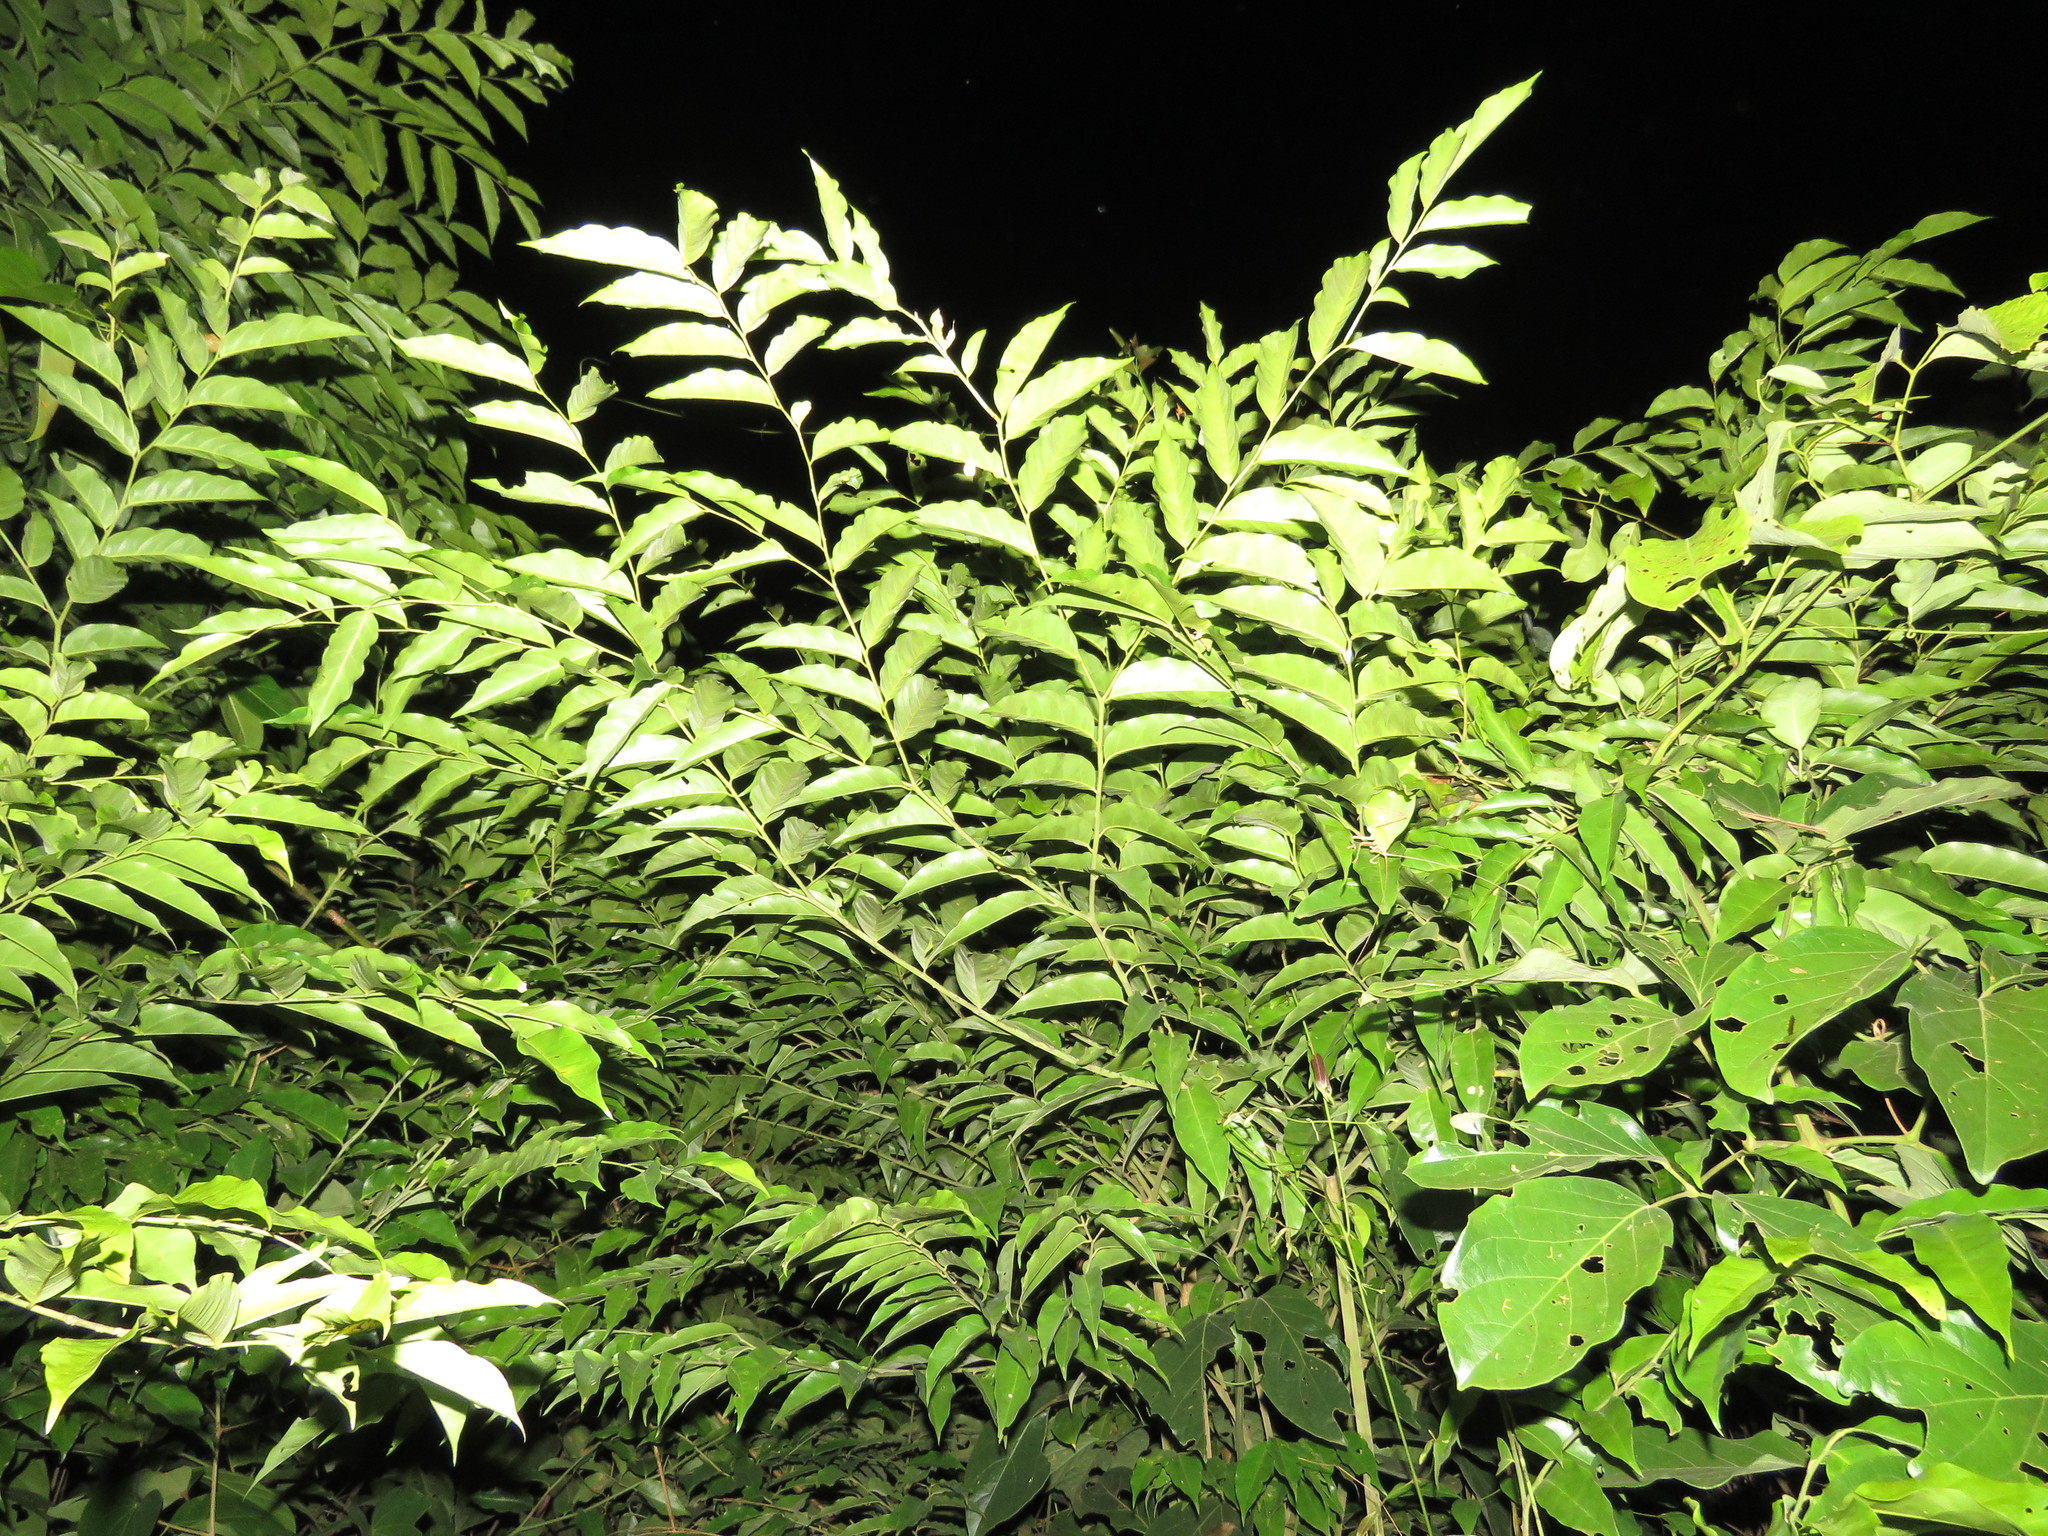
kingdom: Animalia
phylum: Arthropoda
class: Insecta
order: Orthoptera
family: Tettigoniidae
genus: Cycloptera
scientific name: Cycloptera speculata
